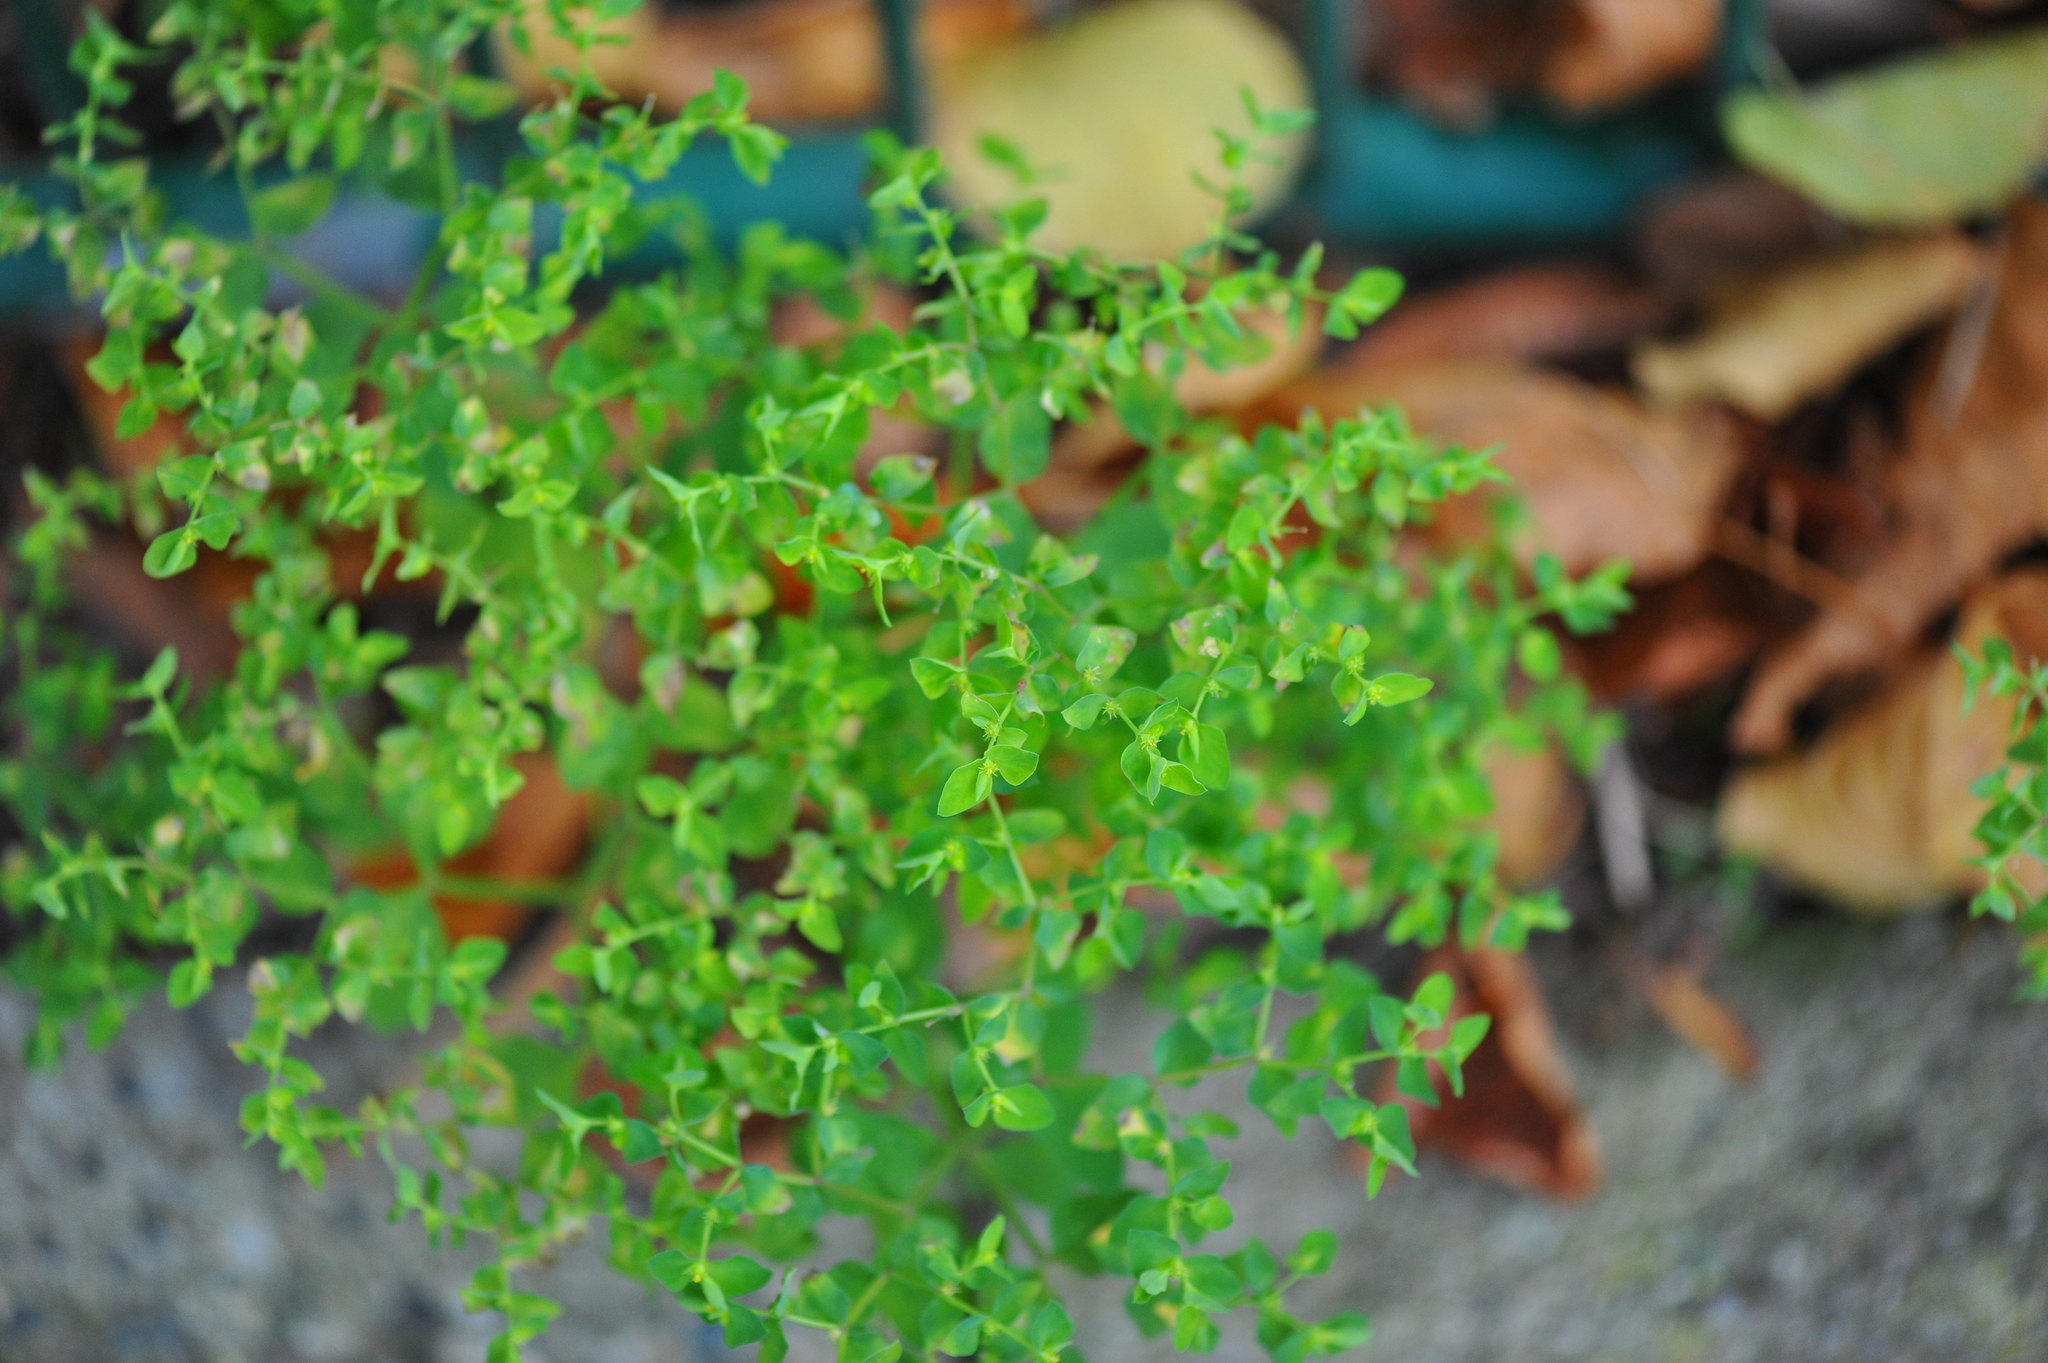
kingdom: Plantae
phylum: Tracheophyta
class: Magnoliopsida
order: Malpighiales
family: Euphorbiaceae
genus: Euphorbia
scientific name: Euphorbia peplus
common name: Petty spurge
